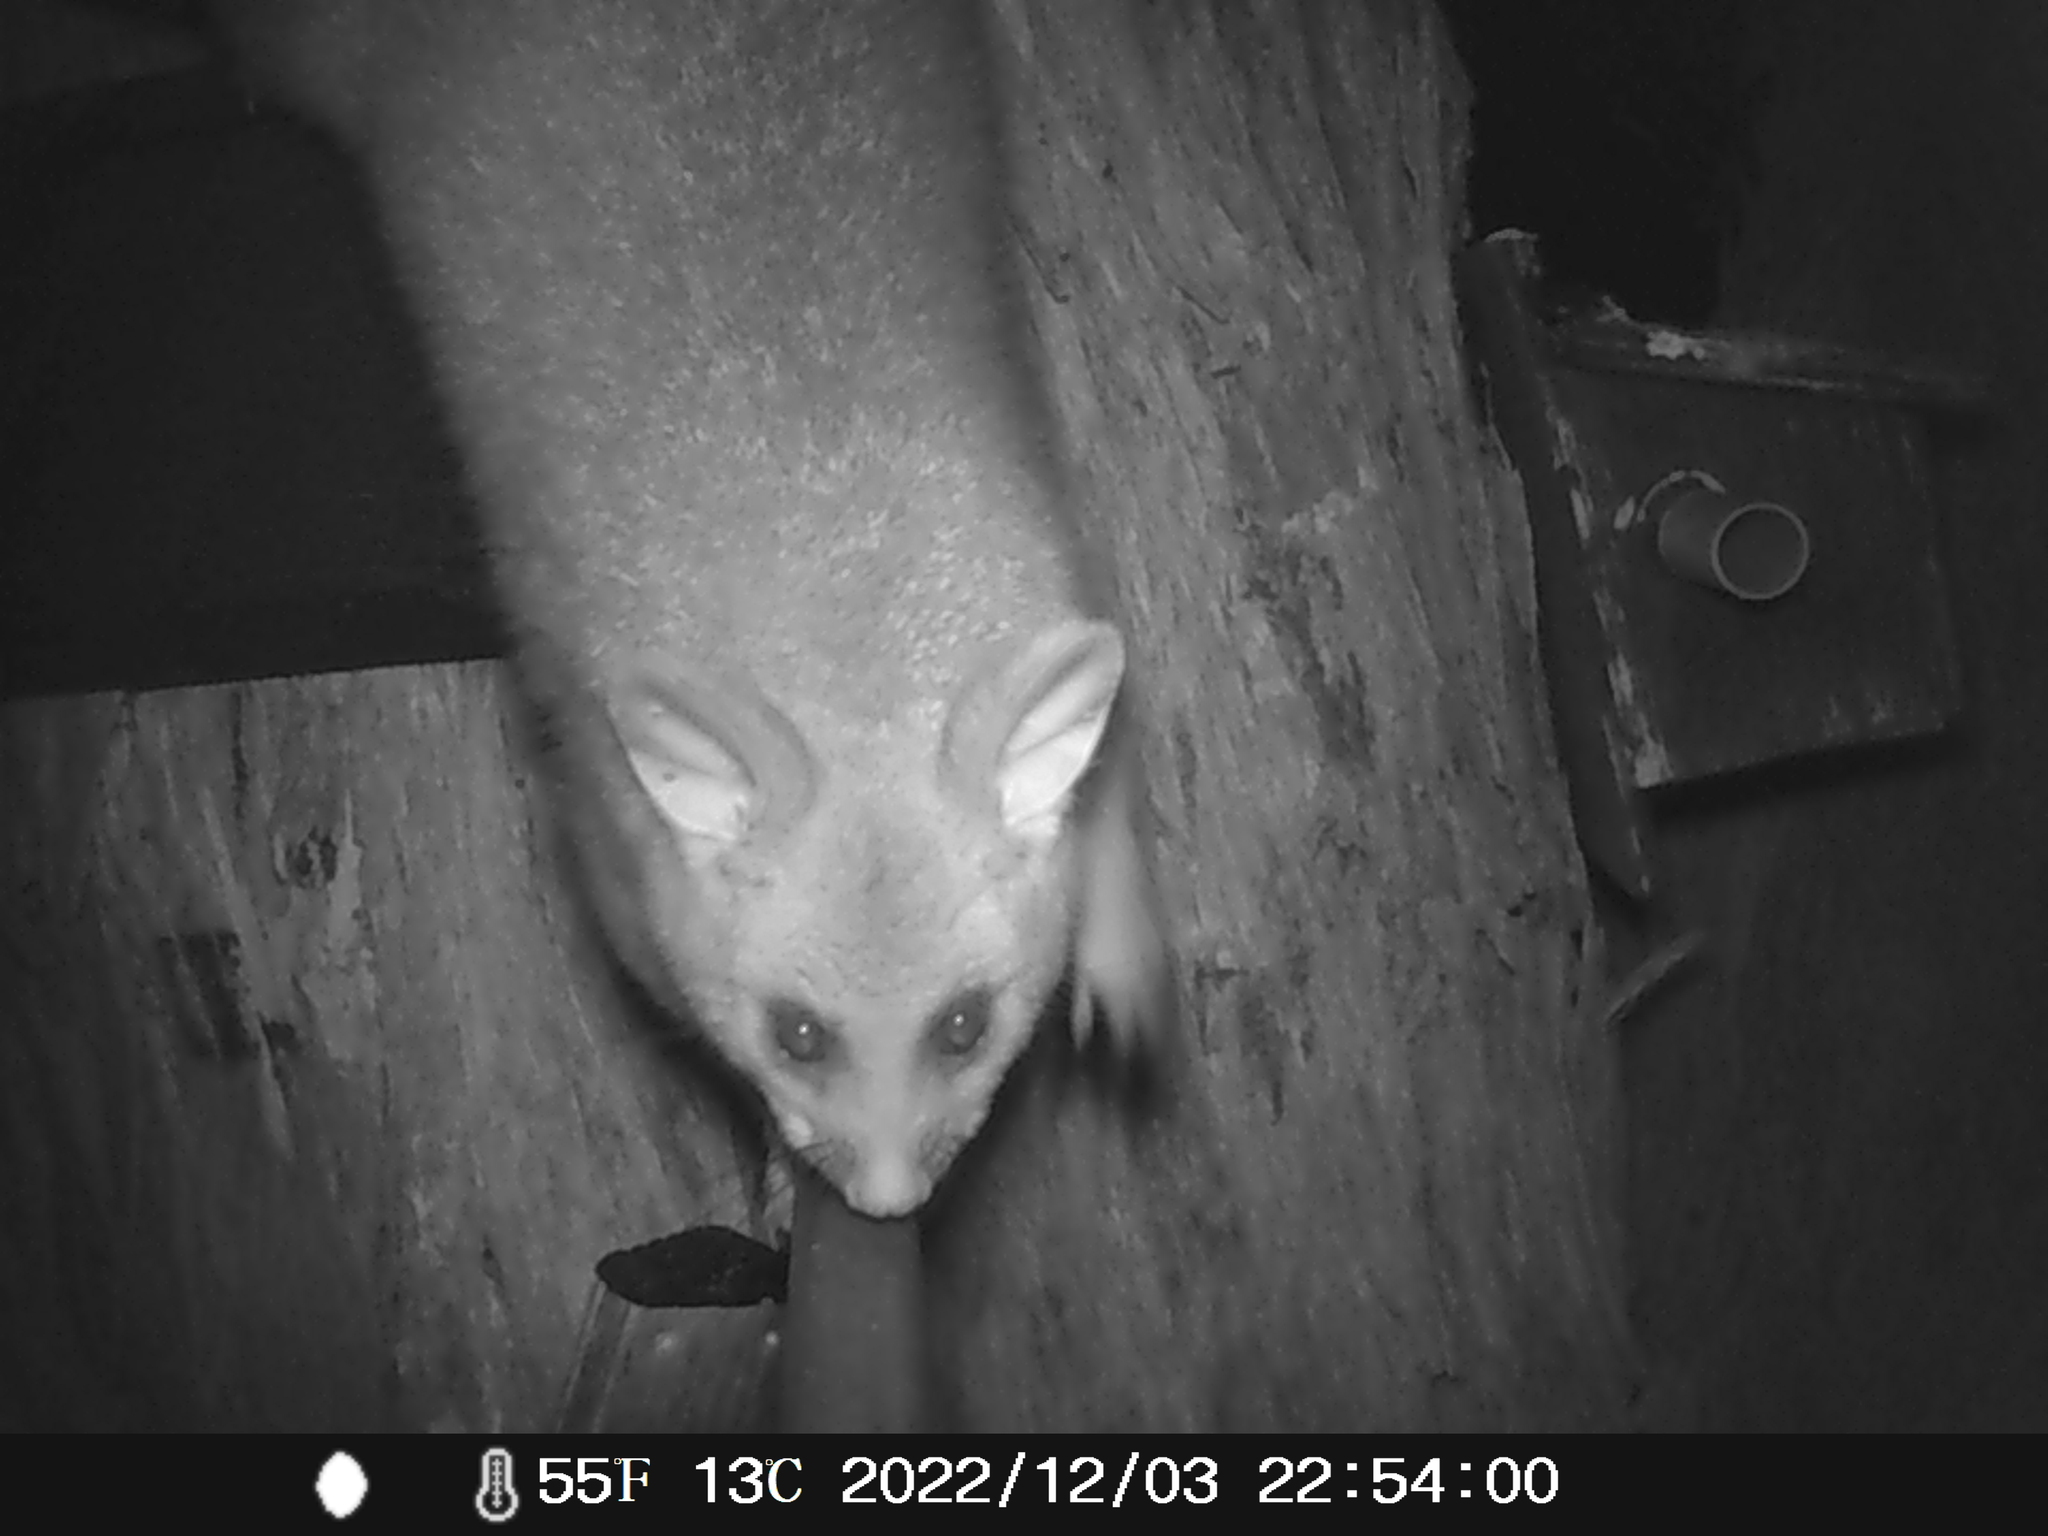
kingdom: Animalia
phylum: Chordata
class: Mammalia
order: Diprotodontia
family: Phalangeridae
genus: Trichosurus
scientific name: Trichosurus vulpecula
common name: Common brushtail
